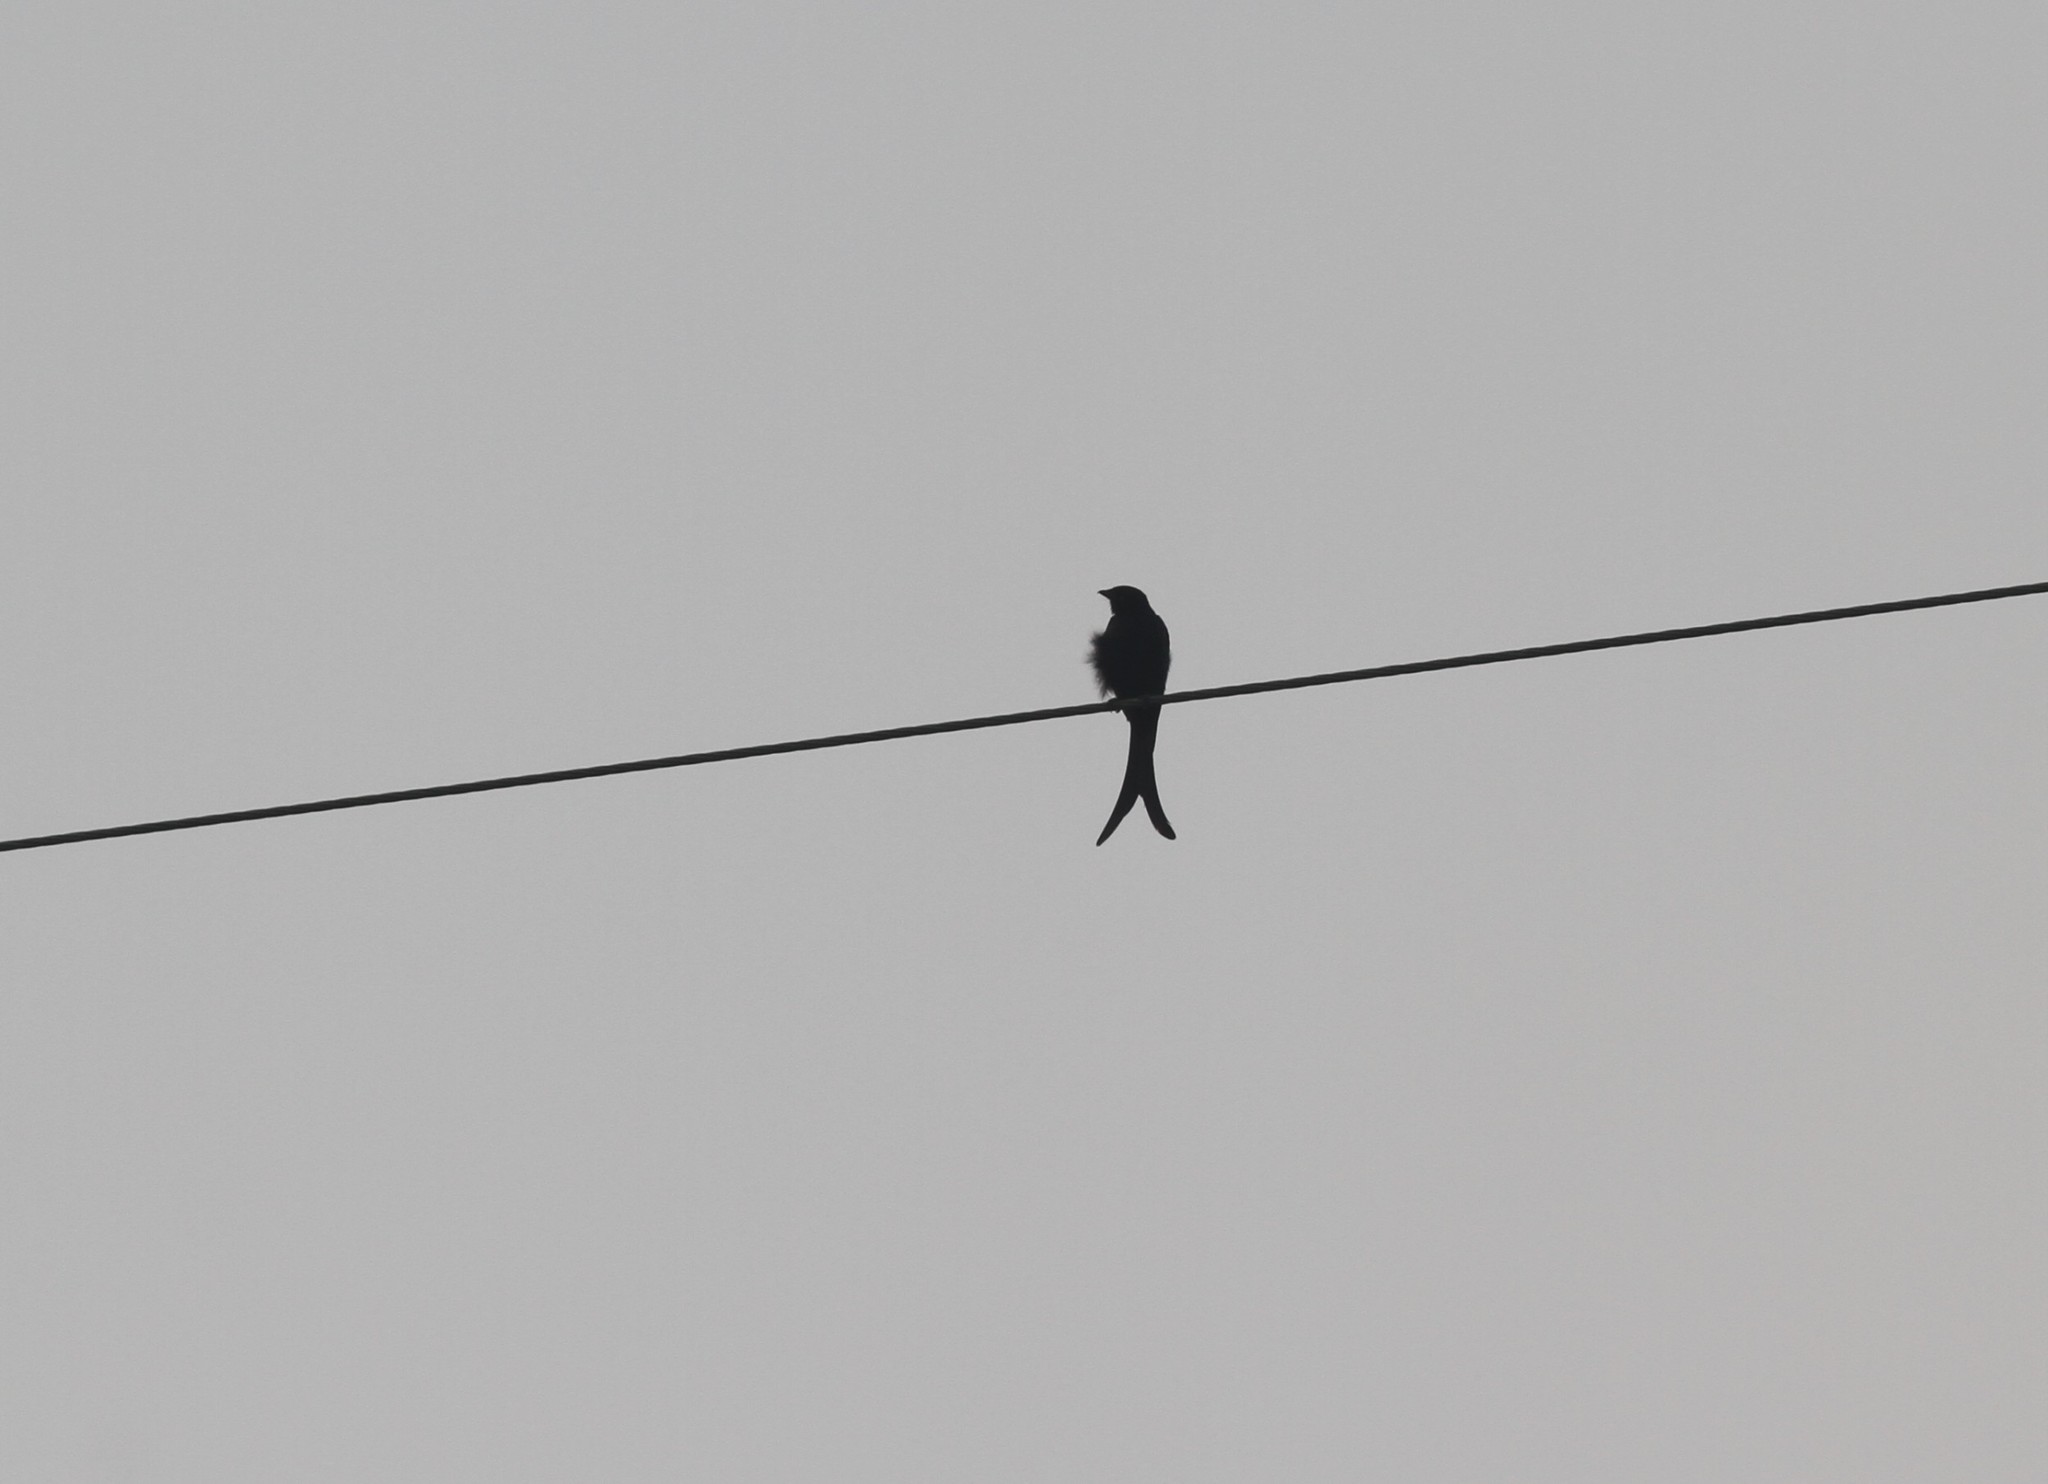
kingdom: Animalia
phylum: Chordata
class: Aves
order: Passeriformes
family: Dicruridae
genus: Dicrurus
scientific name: Dicrurus macrocercus
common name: Black drongo
